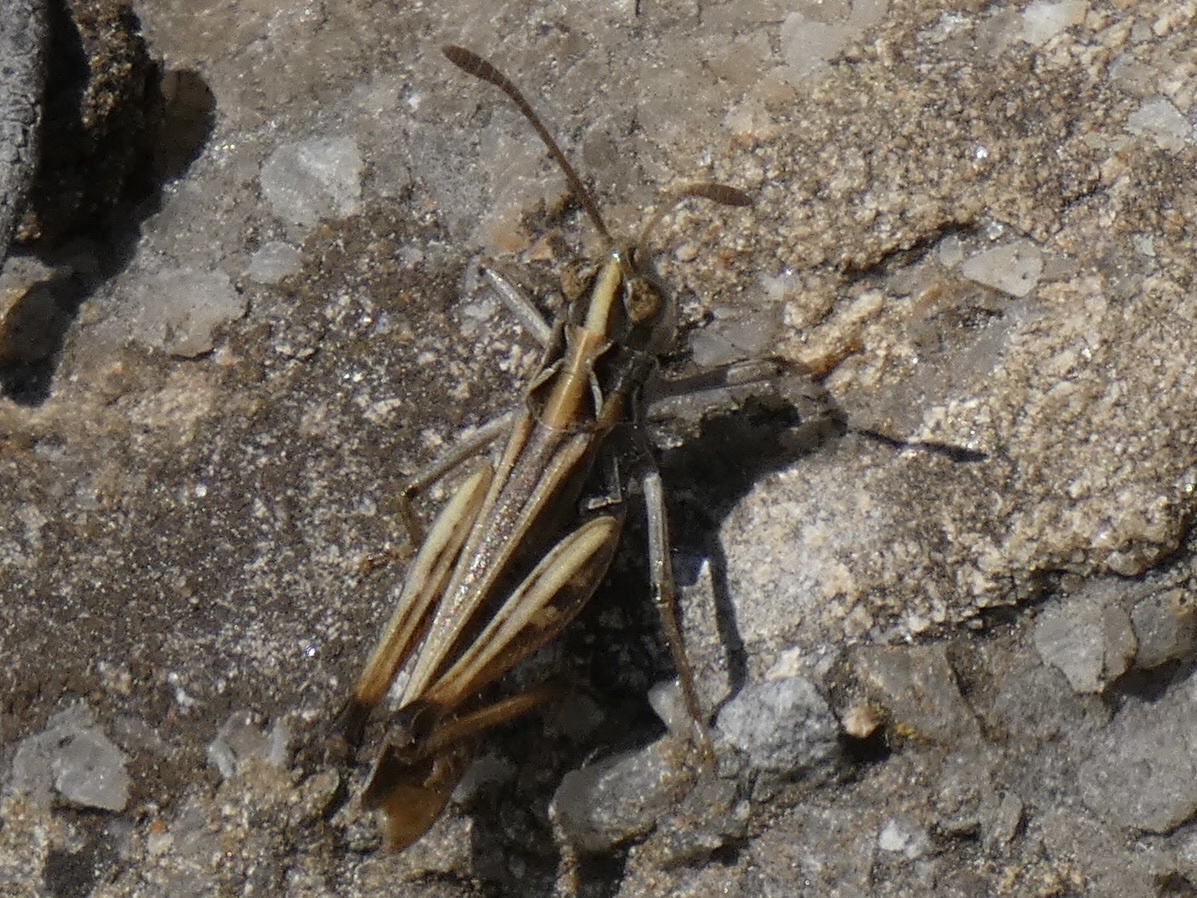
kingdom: Animalia
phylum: Arthropoda
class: Insecta
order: Orthoptera
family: Acrididae
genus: Myrmeleotettix
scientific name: Myrmeleotettix maculatus
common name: Mottled grasshopper
